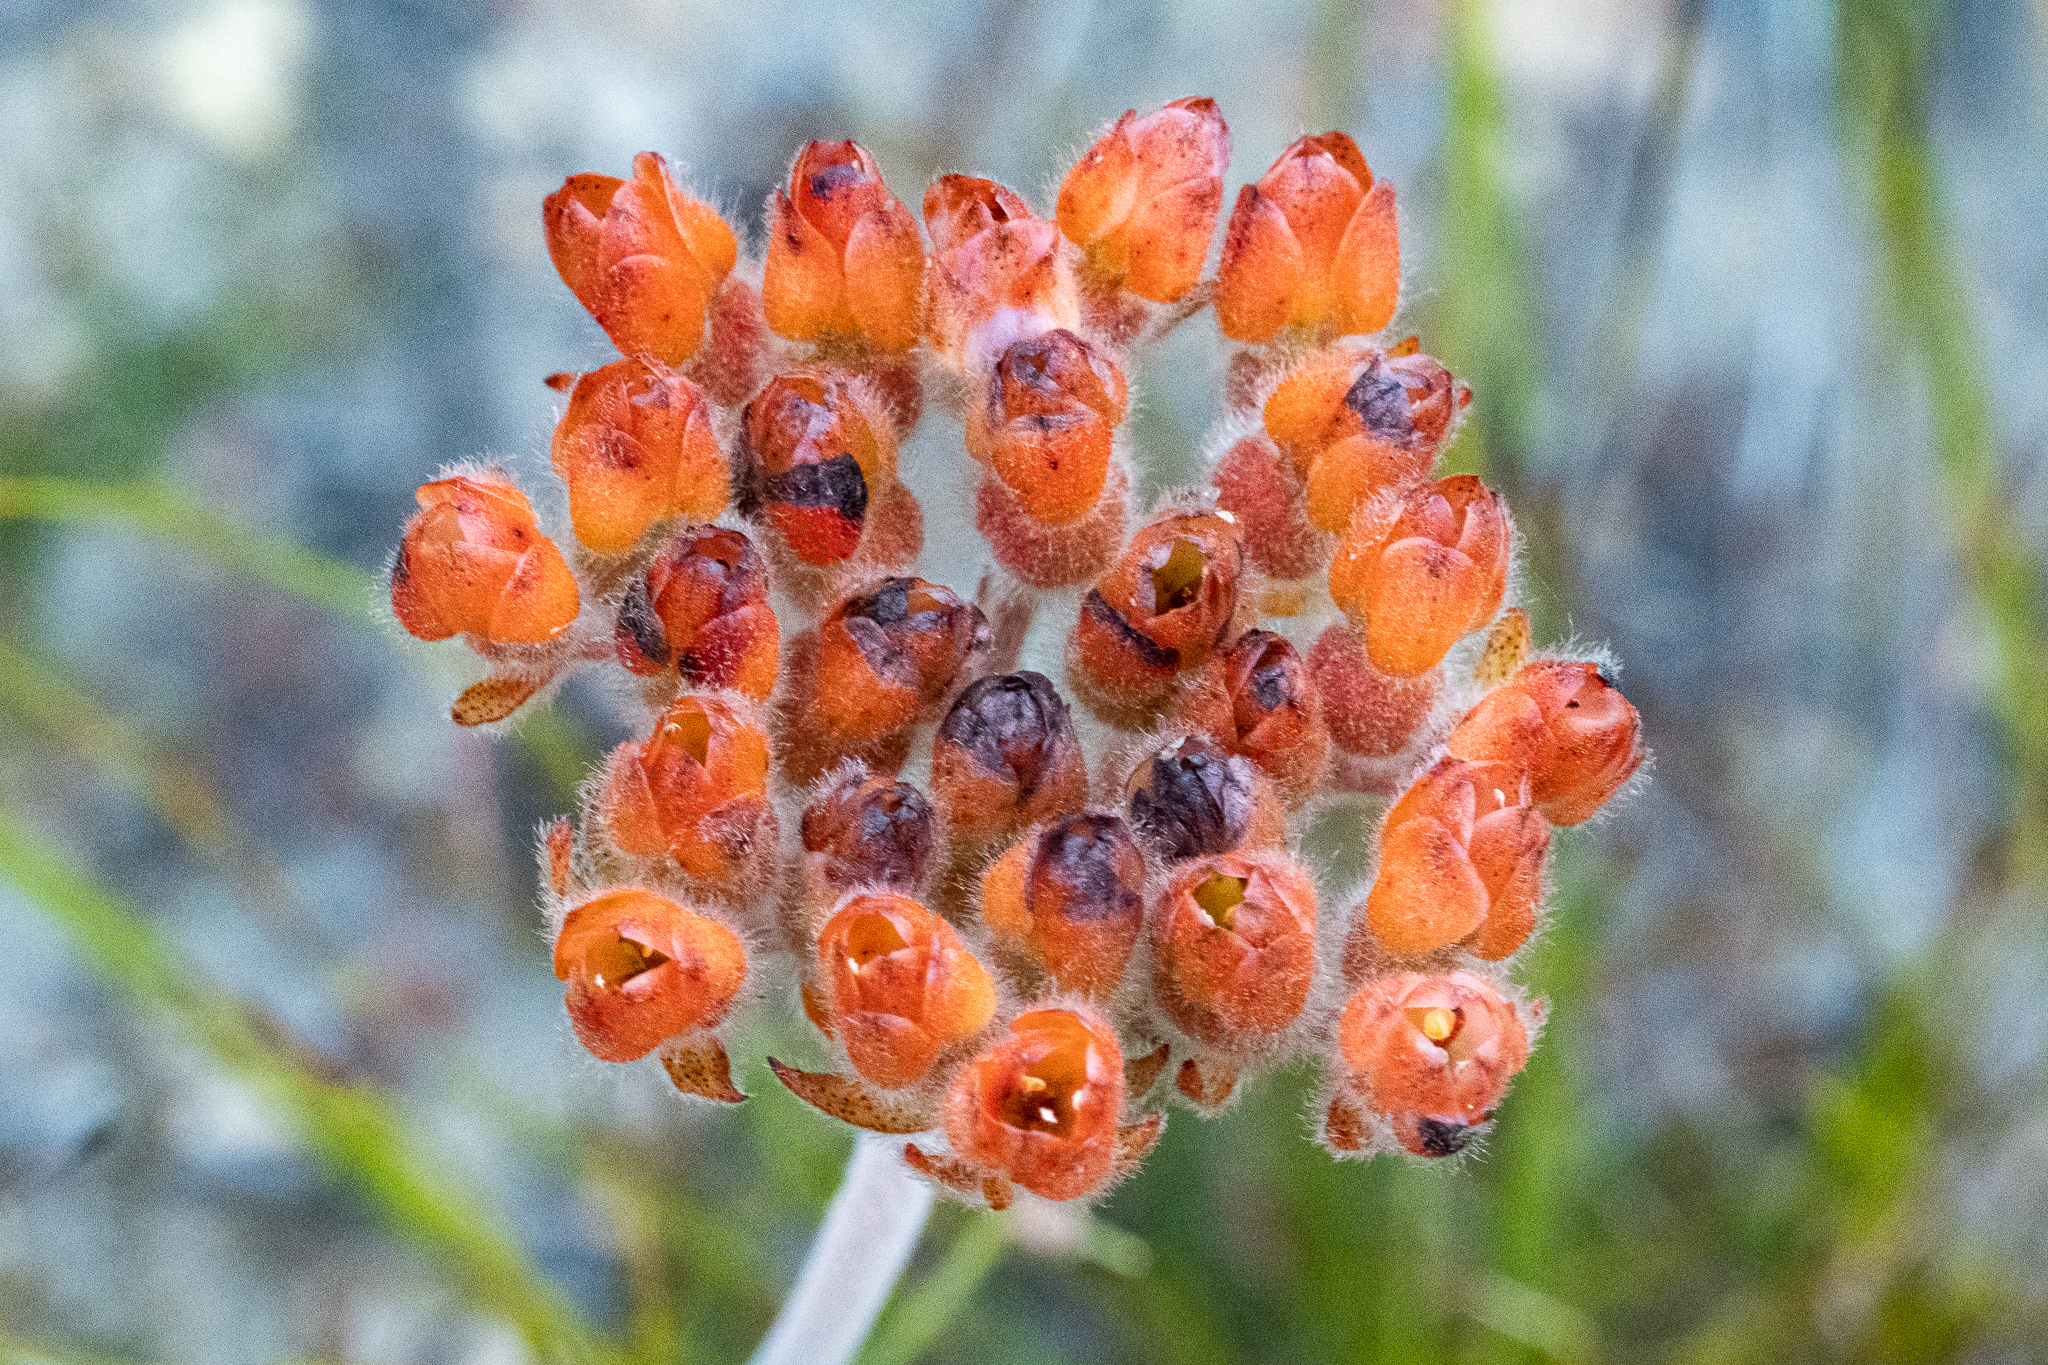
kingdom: Plantae
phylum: Tracheophyta
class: Liliopsida
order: Commelinales
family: Haemodoraceae
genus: Dilatris
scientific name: Dilatris pillansii
